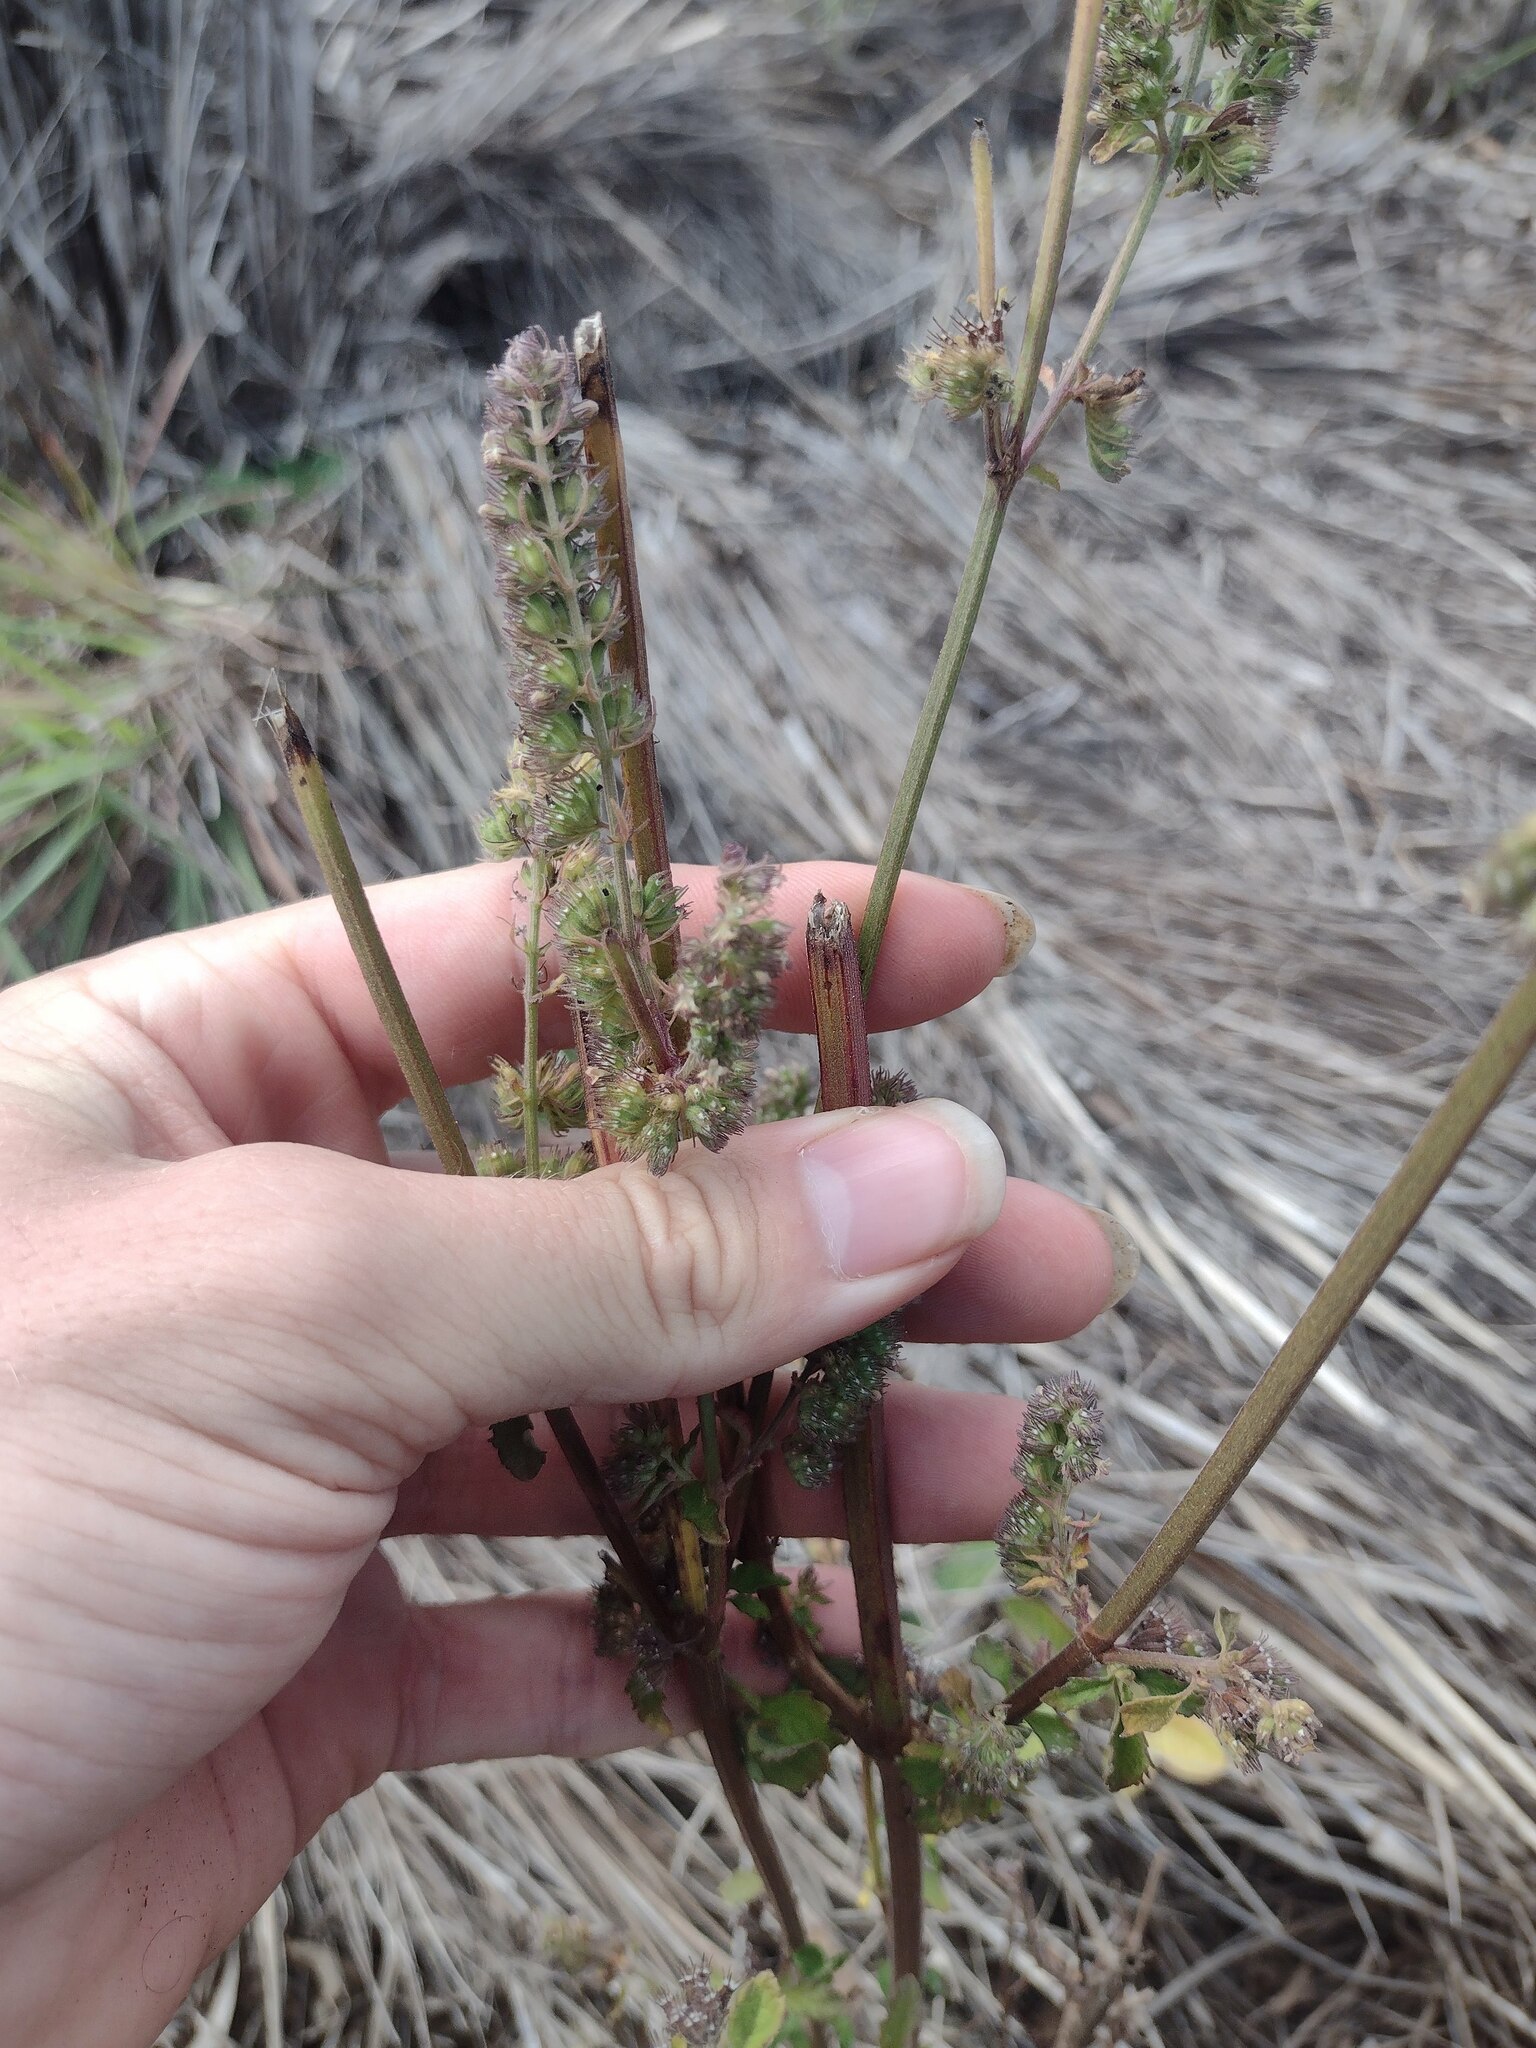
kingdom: Plantae
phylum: Tracheophyta
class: Magnoliopsida
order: Lamiales
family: Lamiaceae
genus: Mesosphaerum
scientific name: Mesosphaerum pectinatum
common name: Comb hyptis
